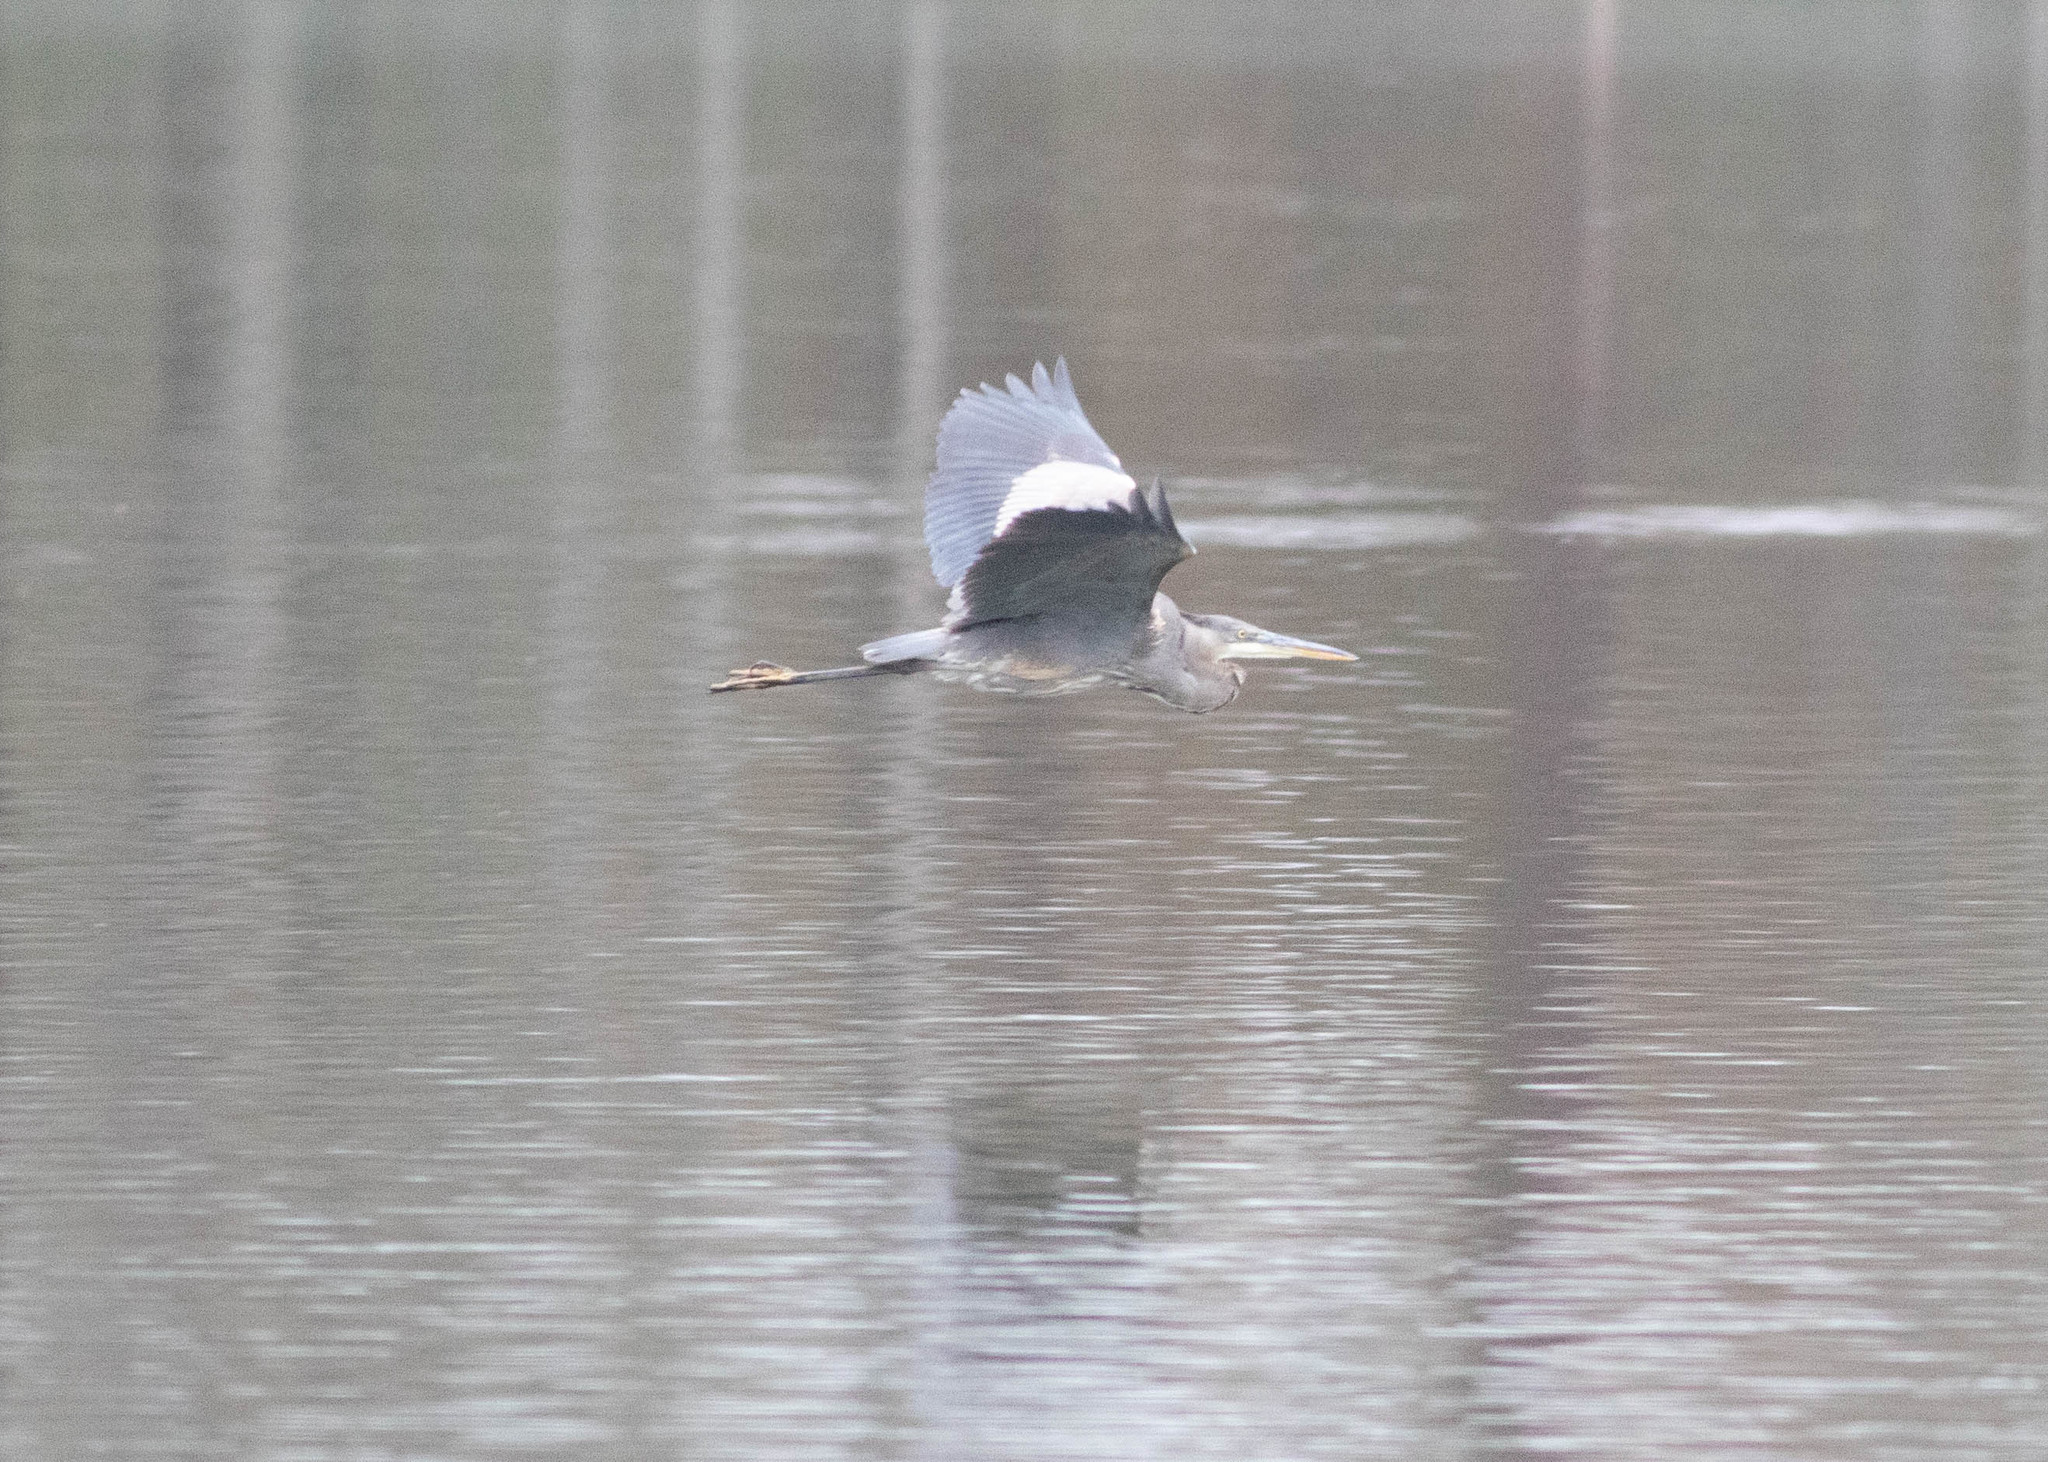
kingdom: Animalia
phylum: Chordata
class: Aves
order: Pelecaniformes
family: Ardeidae
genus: Ardea
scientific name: Ardea herodias
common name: Great blue heron
